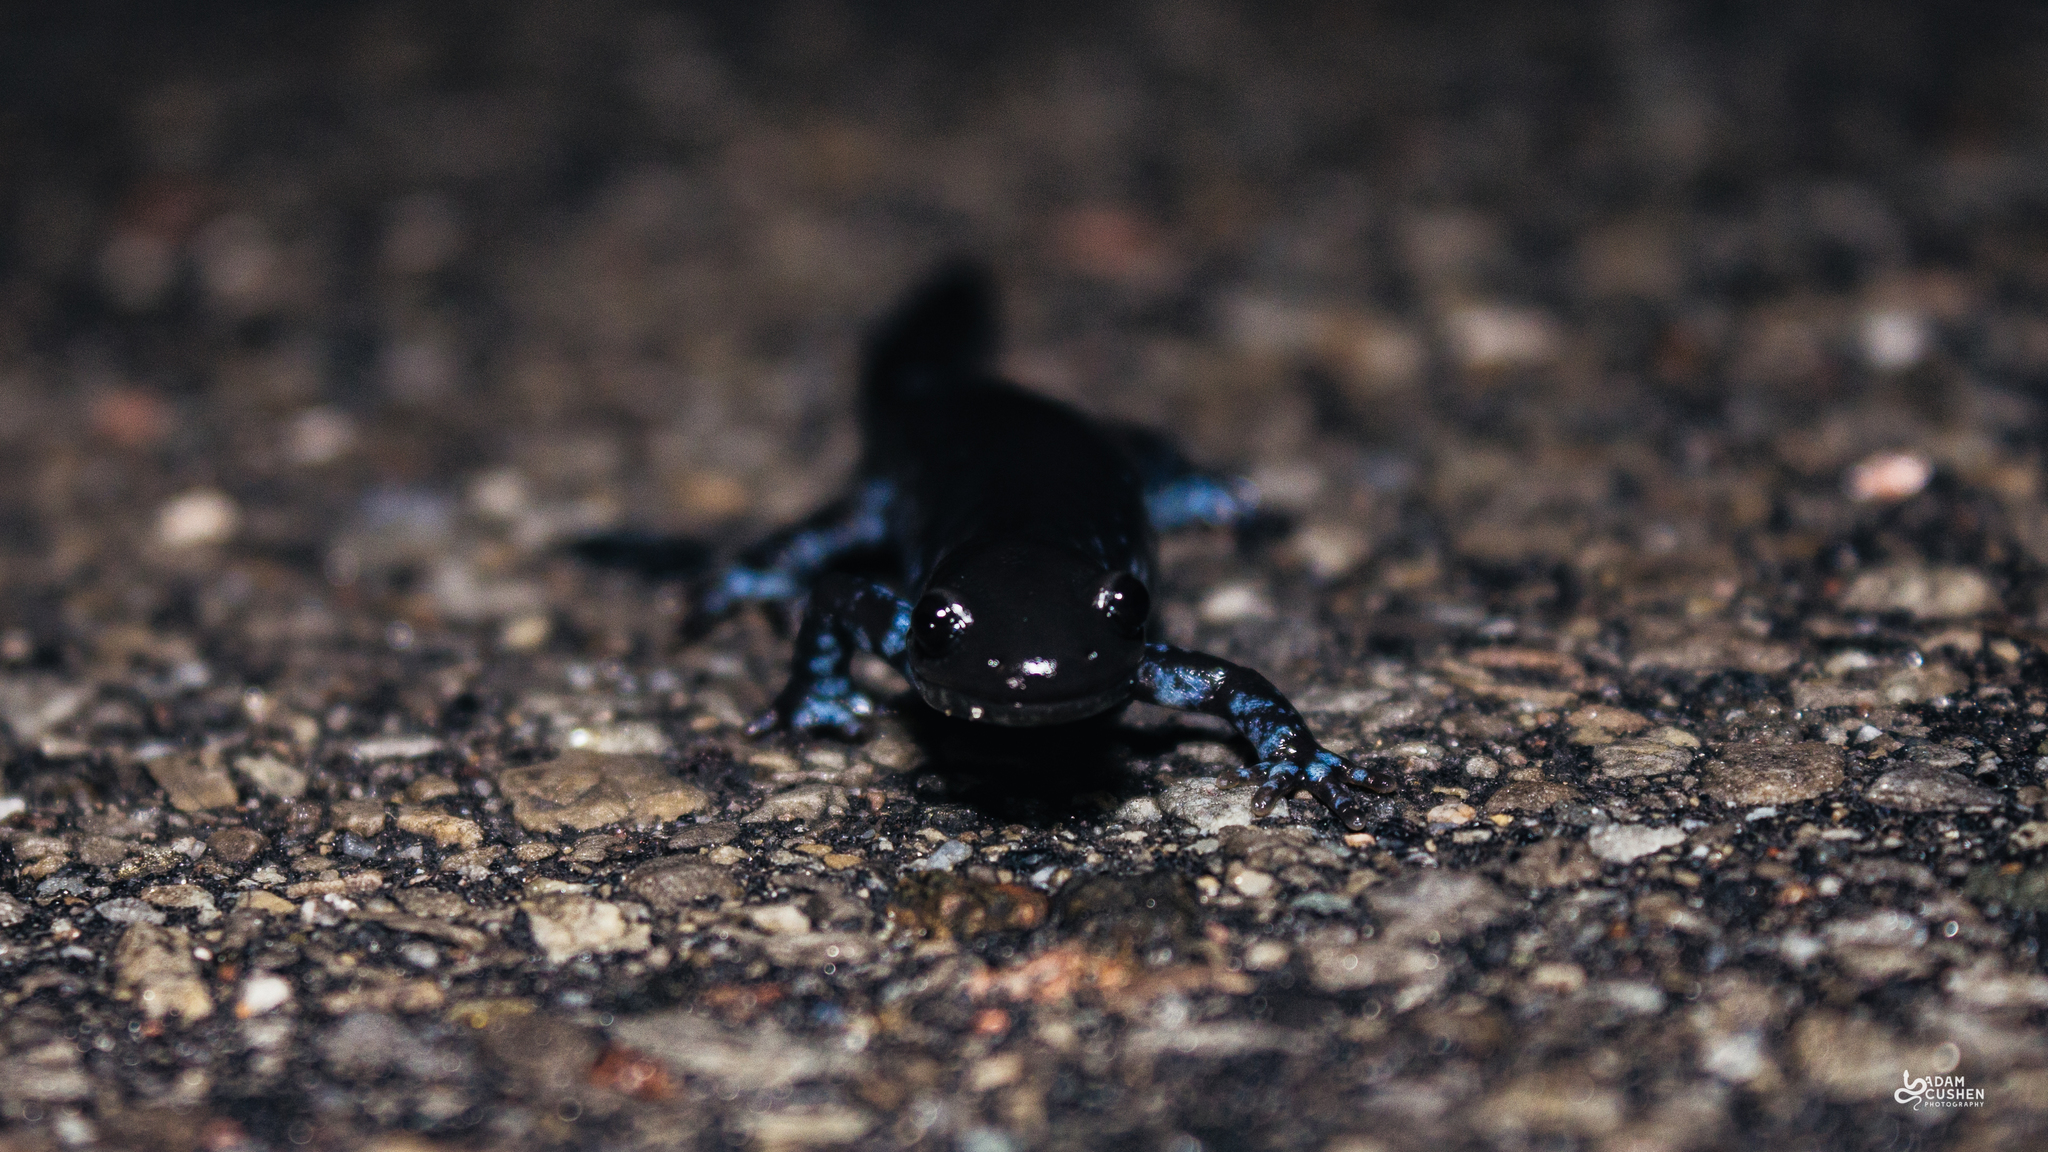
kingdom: Animalia
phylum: Chordata
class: Amphibia
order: Caudata
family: Ambystomatidae
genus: Ambystoma
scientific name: Ambystoma laterale
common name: Blue-spotted salamander
